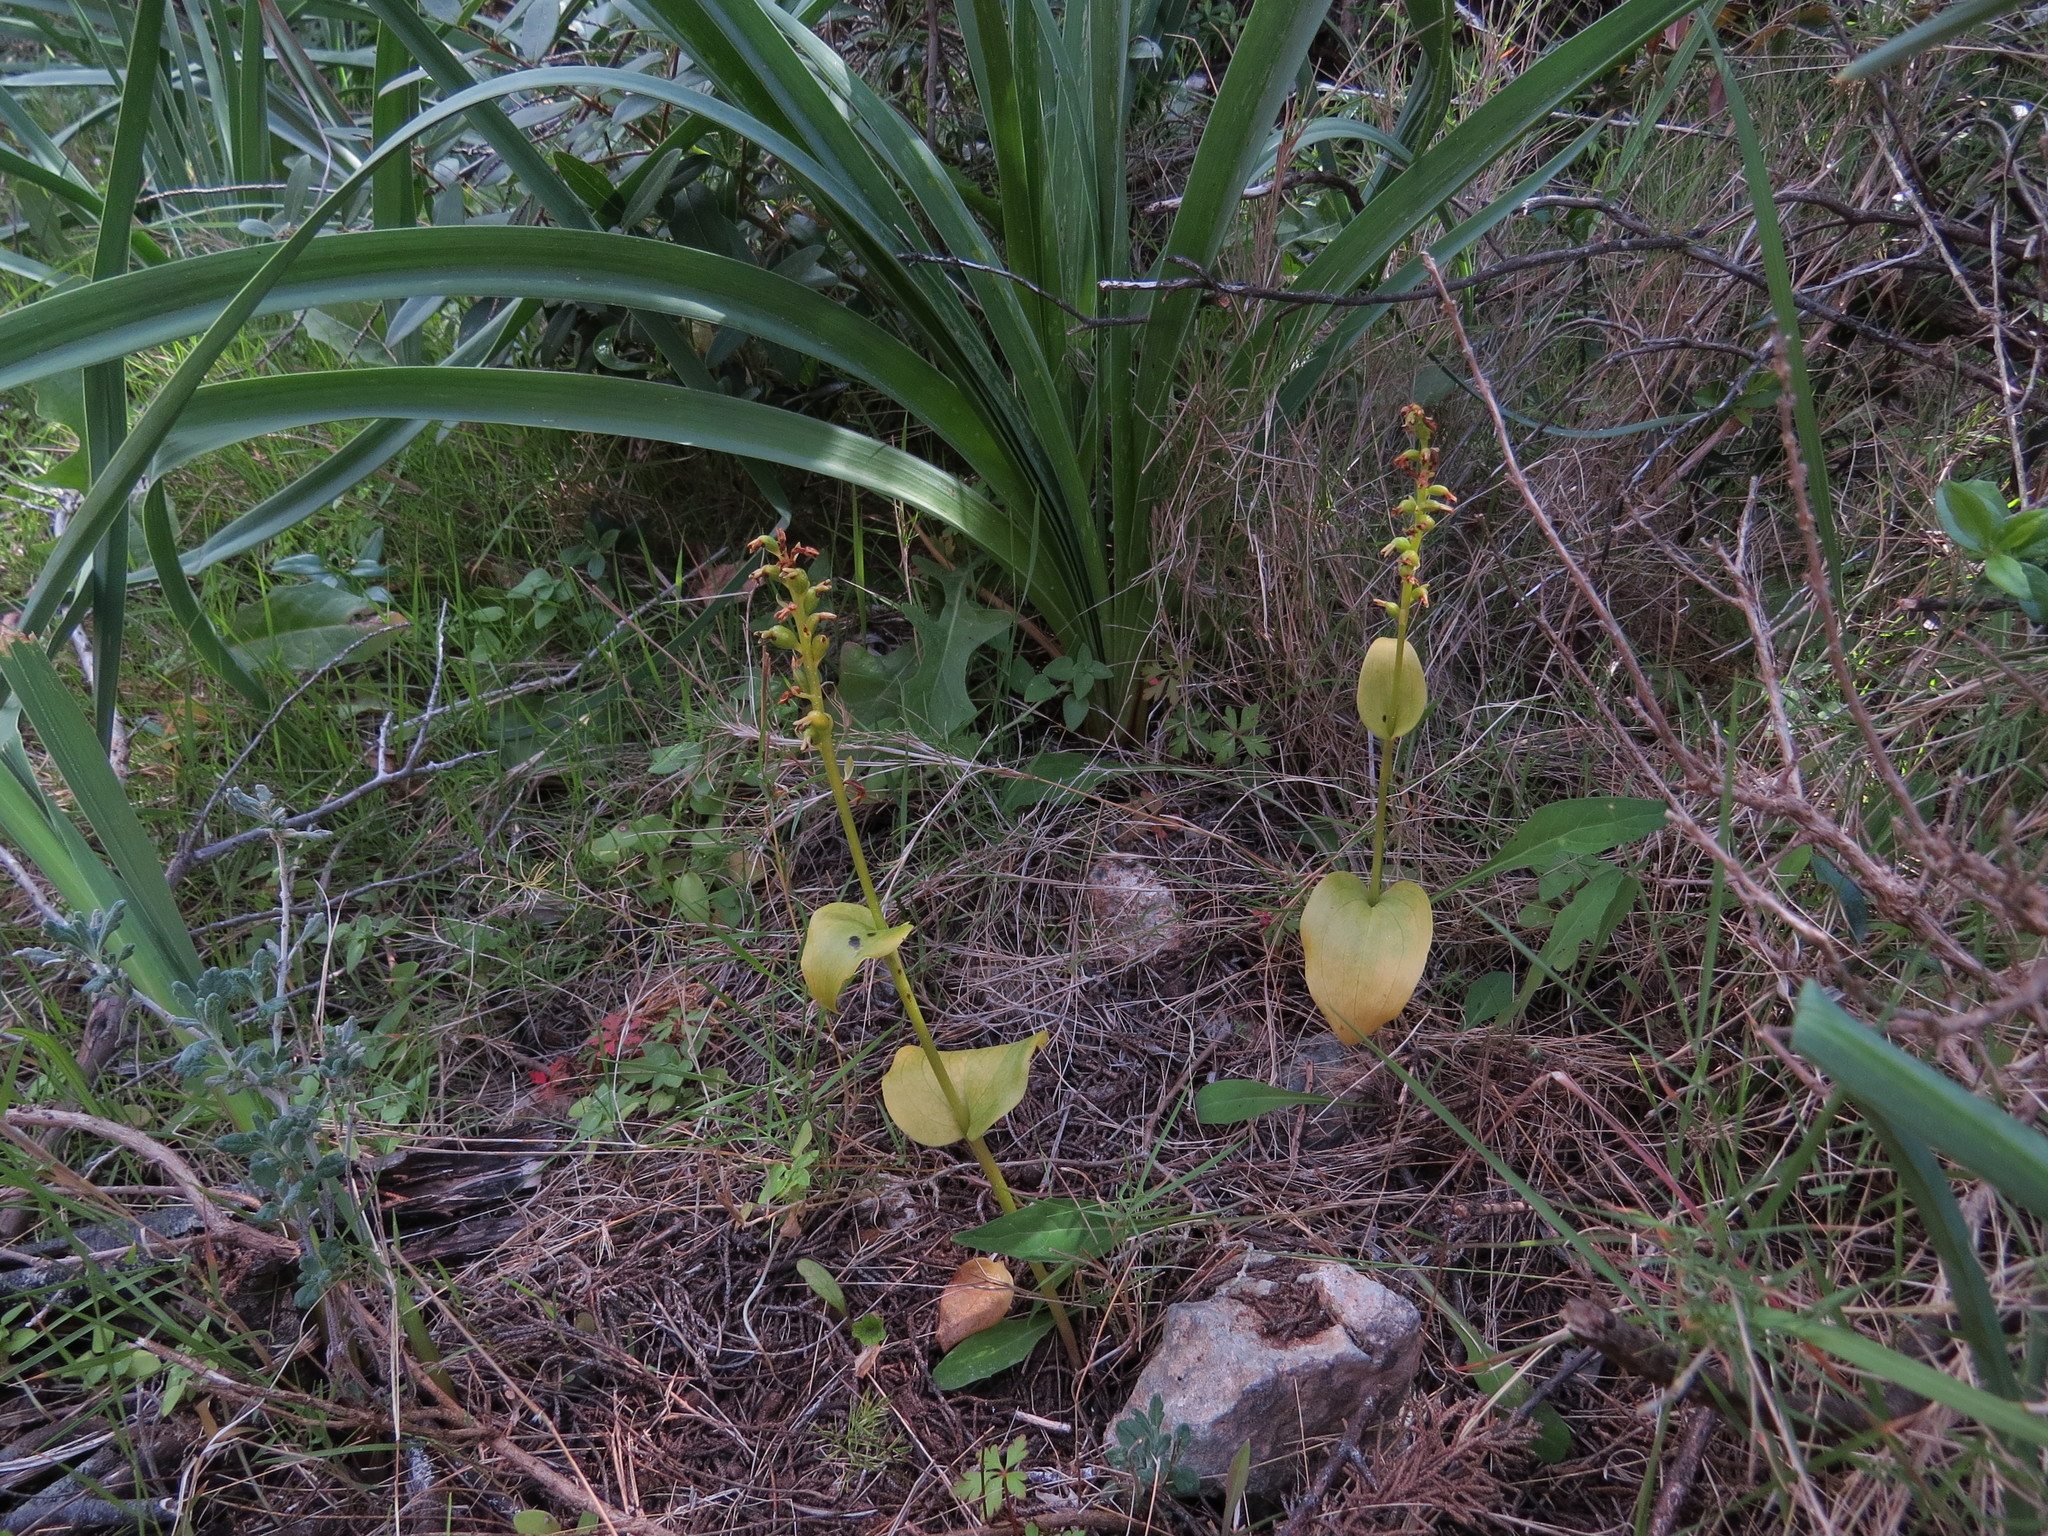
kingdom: Plantae
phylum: Tracheophyta
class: Liliopsida
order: Asparagales
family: Orchidaceae
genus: Gennaria
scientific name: Gennaria diphylla
